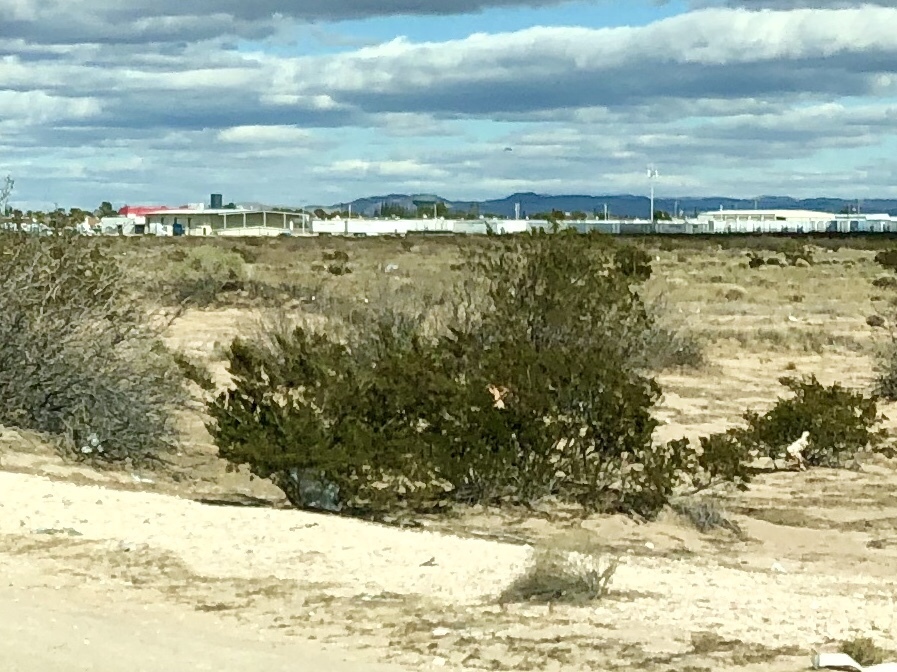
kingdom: Plantae
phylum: Tracheophyta
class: Magnoliopsida
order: Zygophyllales
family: Zygophyllaceae
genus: Larrea
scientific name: Larrea tridentata
